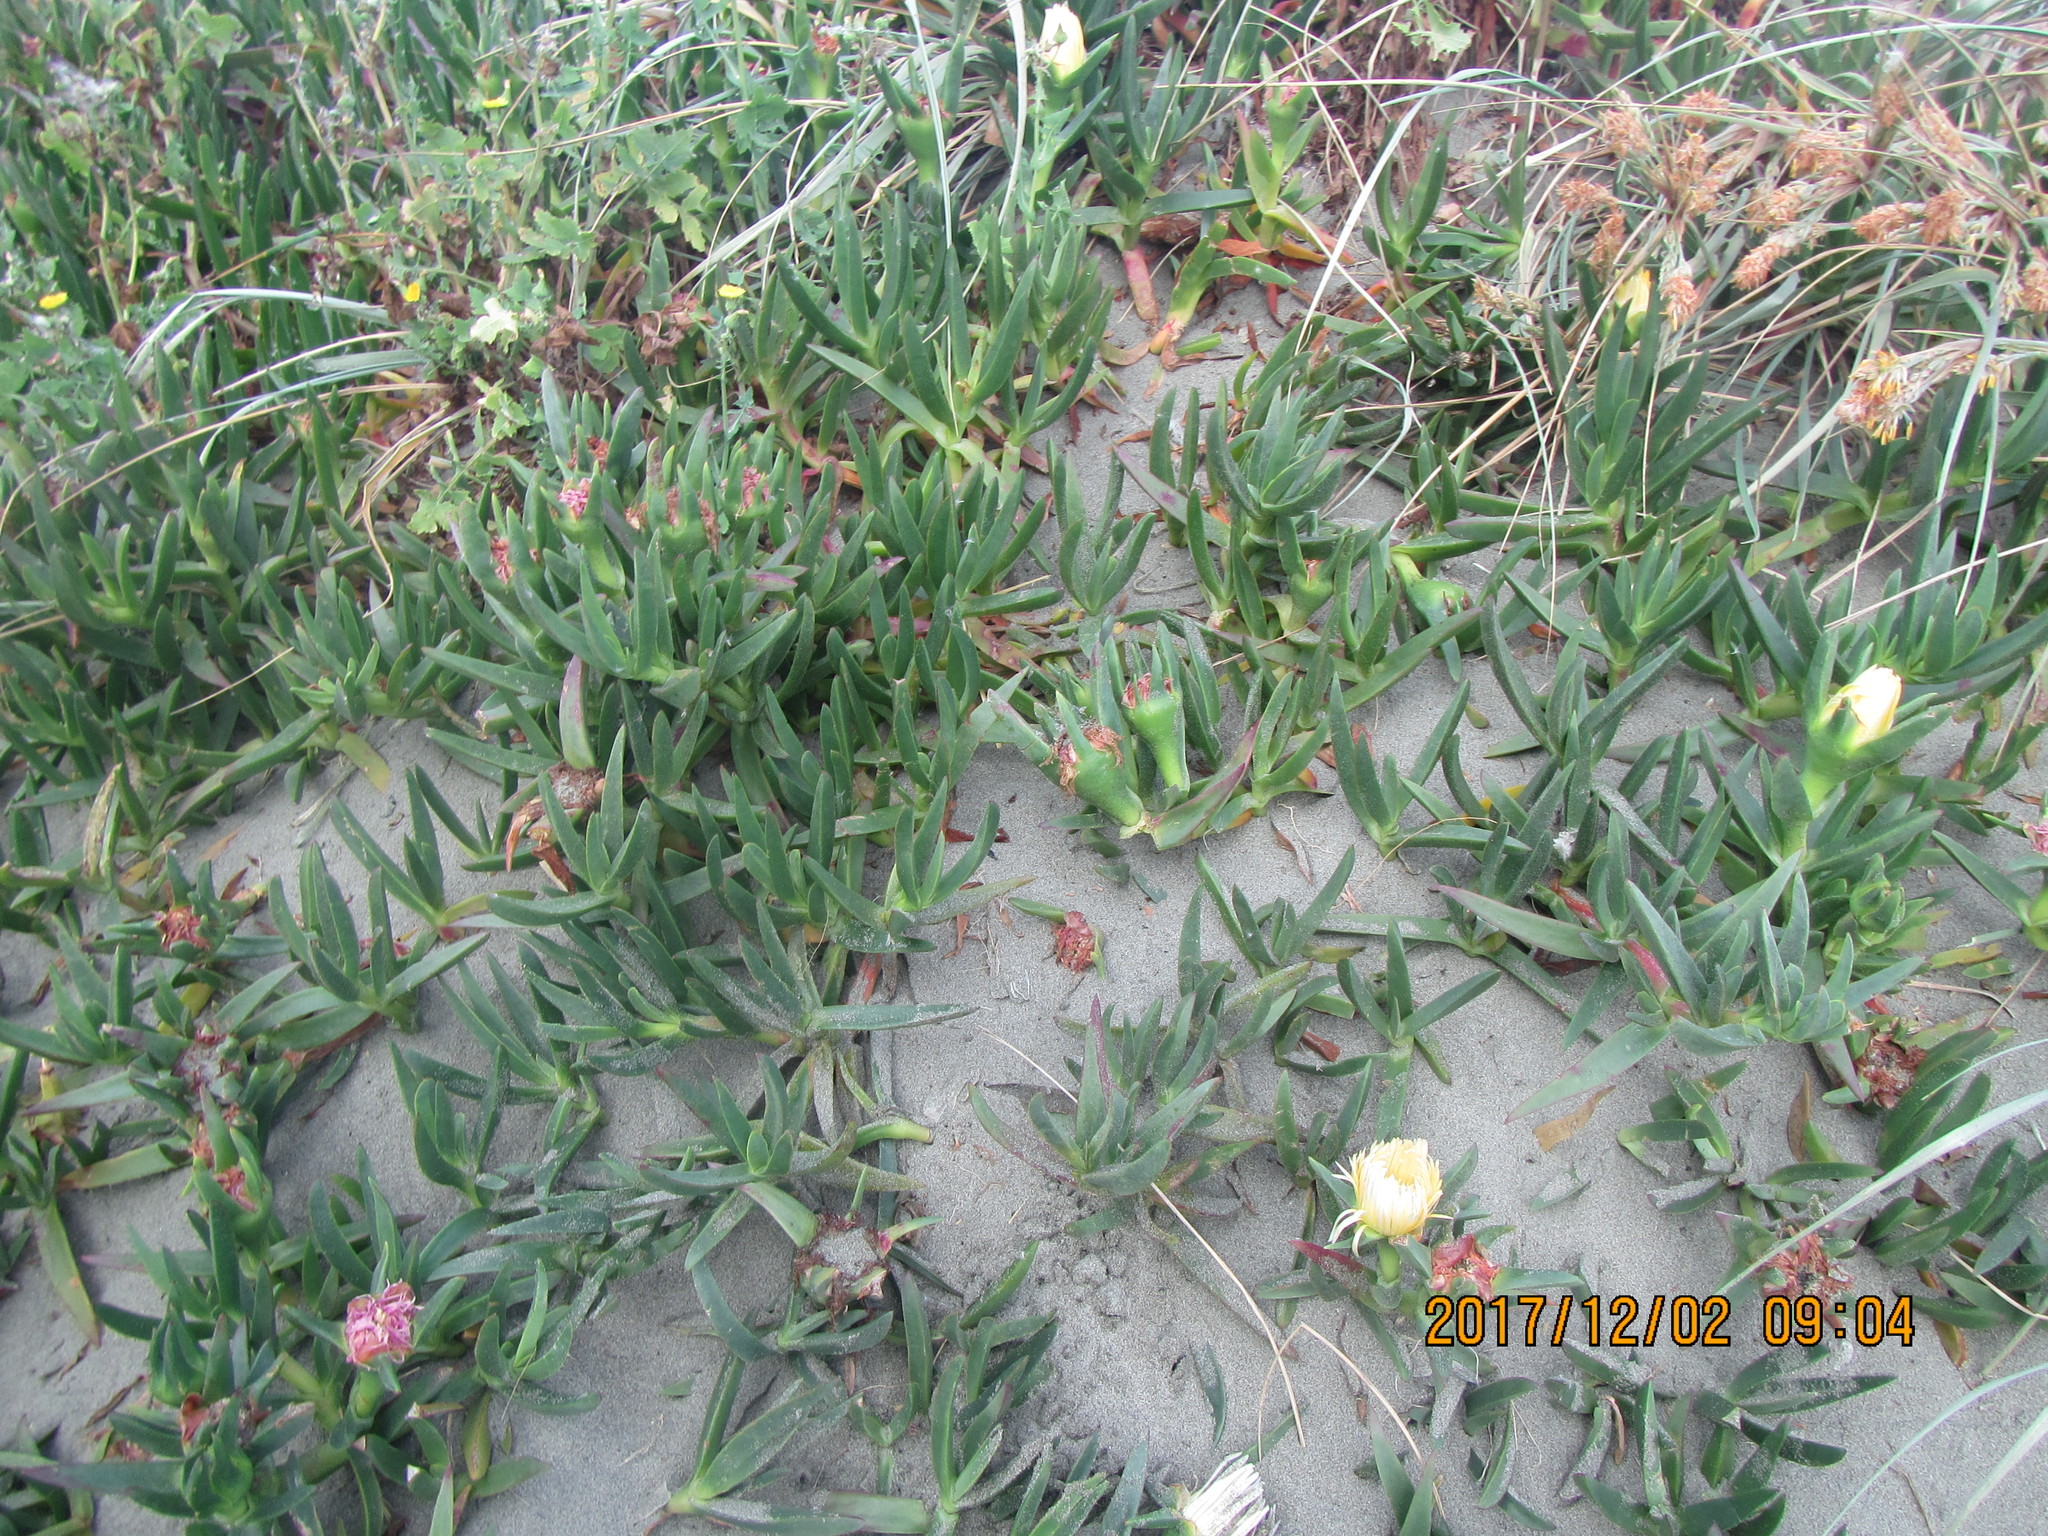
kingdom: Plantae
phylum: Tracheophyta
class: Magnoliopsida
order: Caryophyllales
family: Aizoaceae
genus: Carpobrotus
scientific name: Carpobrotus edulis
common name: Hottentot-fig
